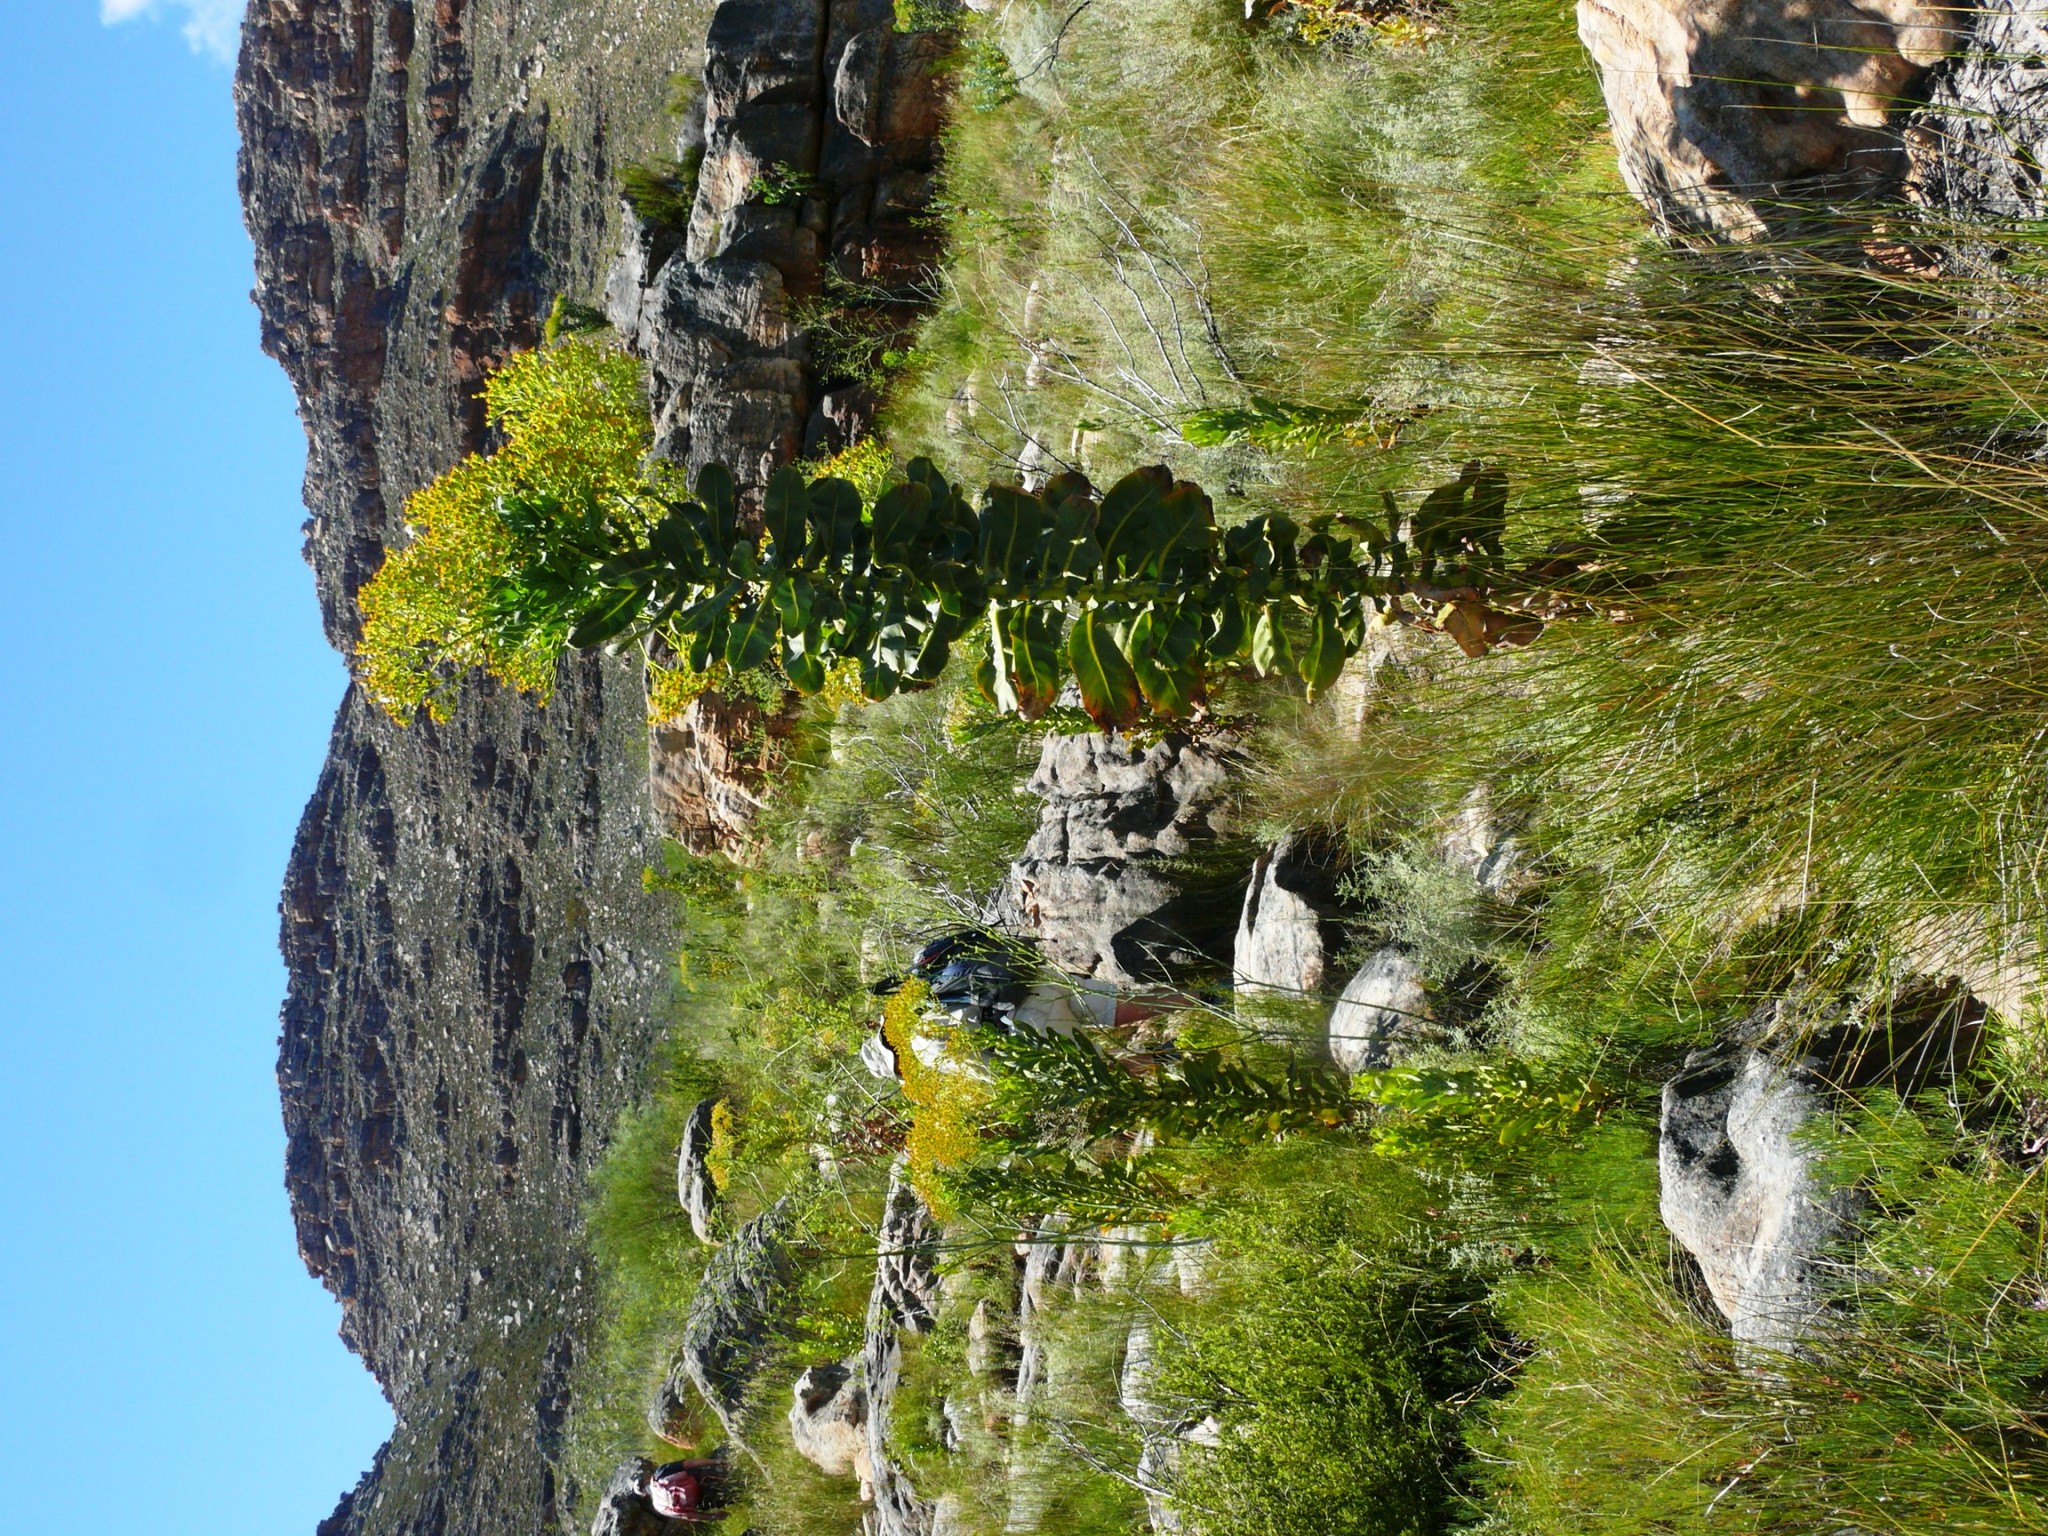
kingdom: Plantae
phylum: Tracheophyta
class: Magnoliopsida
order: Asterales
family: Asteraceae
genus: Othonna
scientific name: Othonna parviflora
